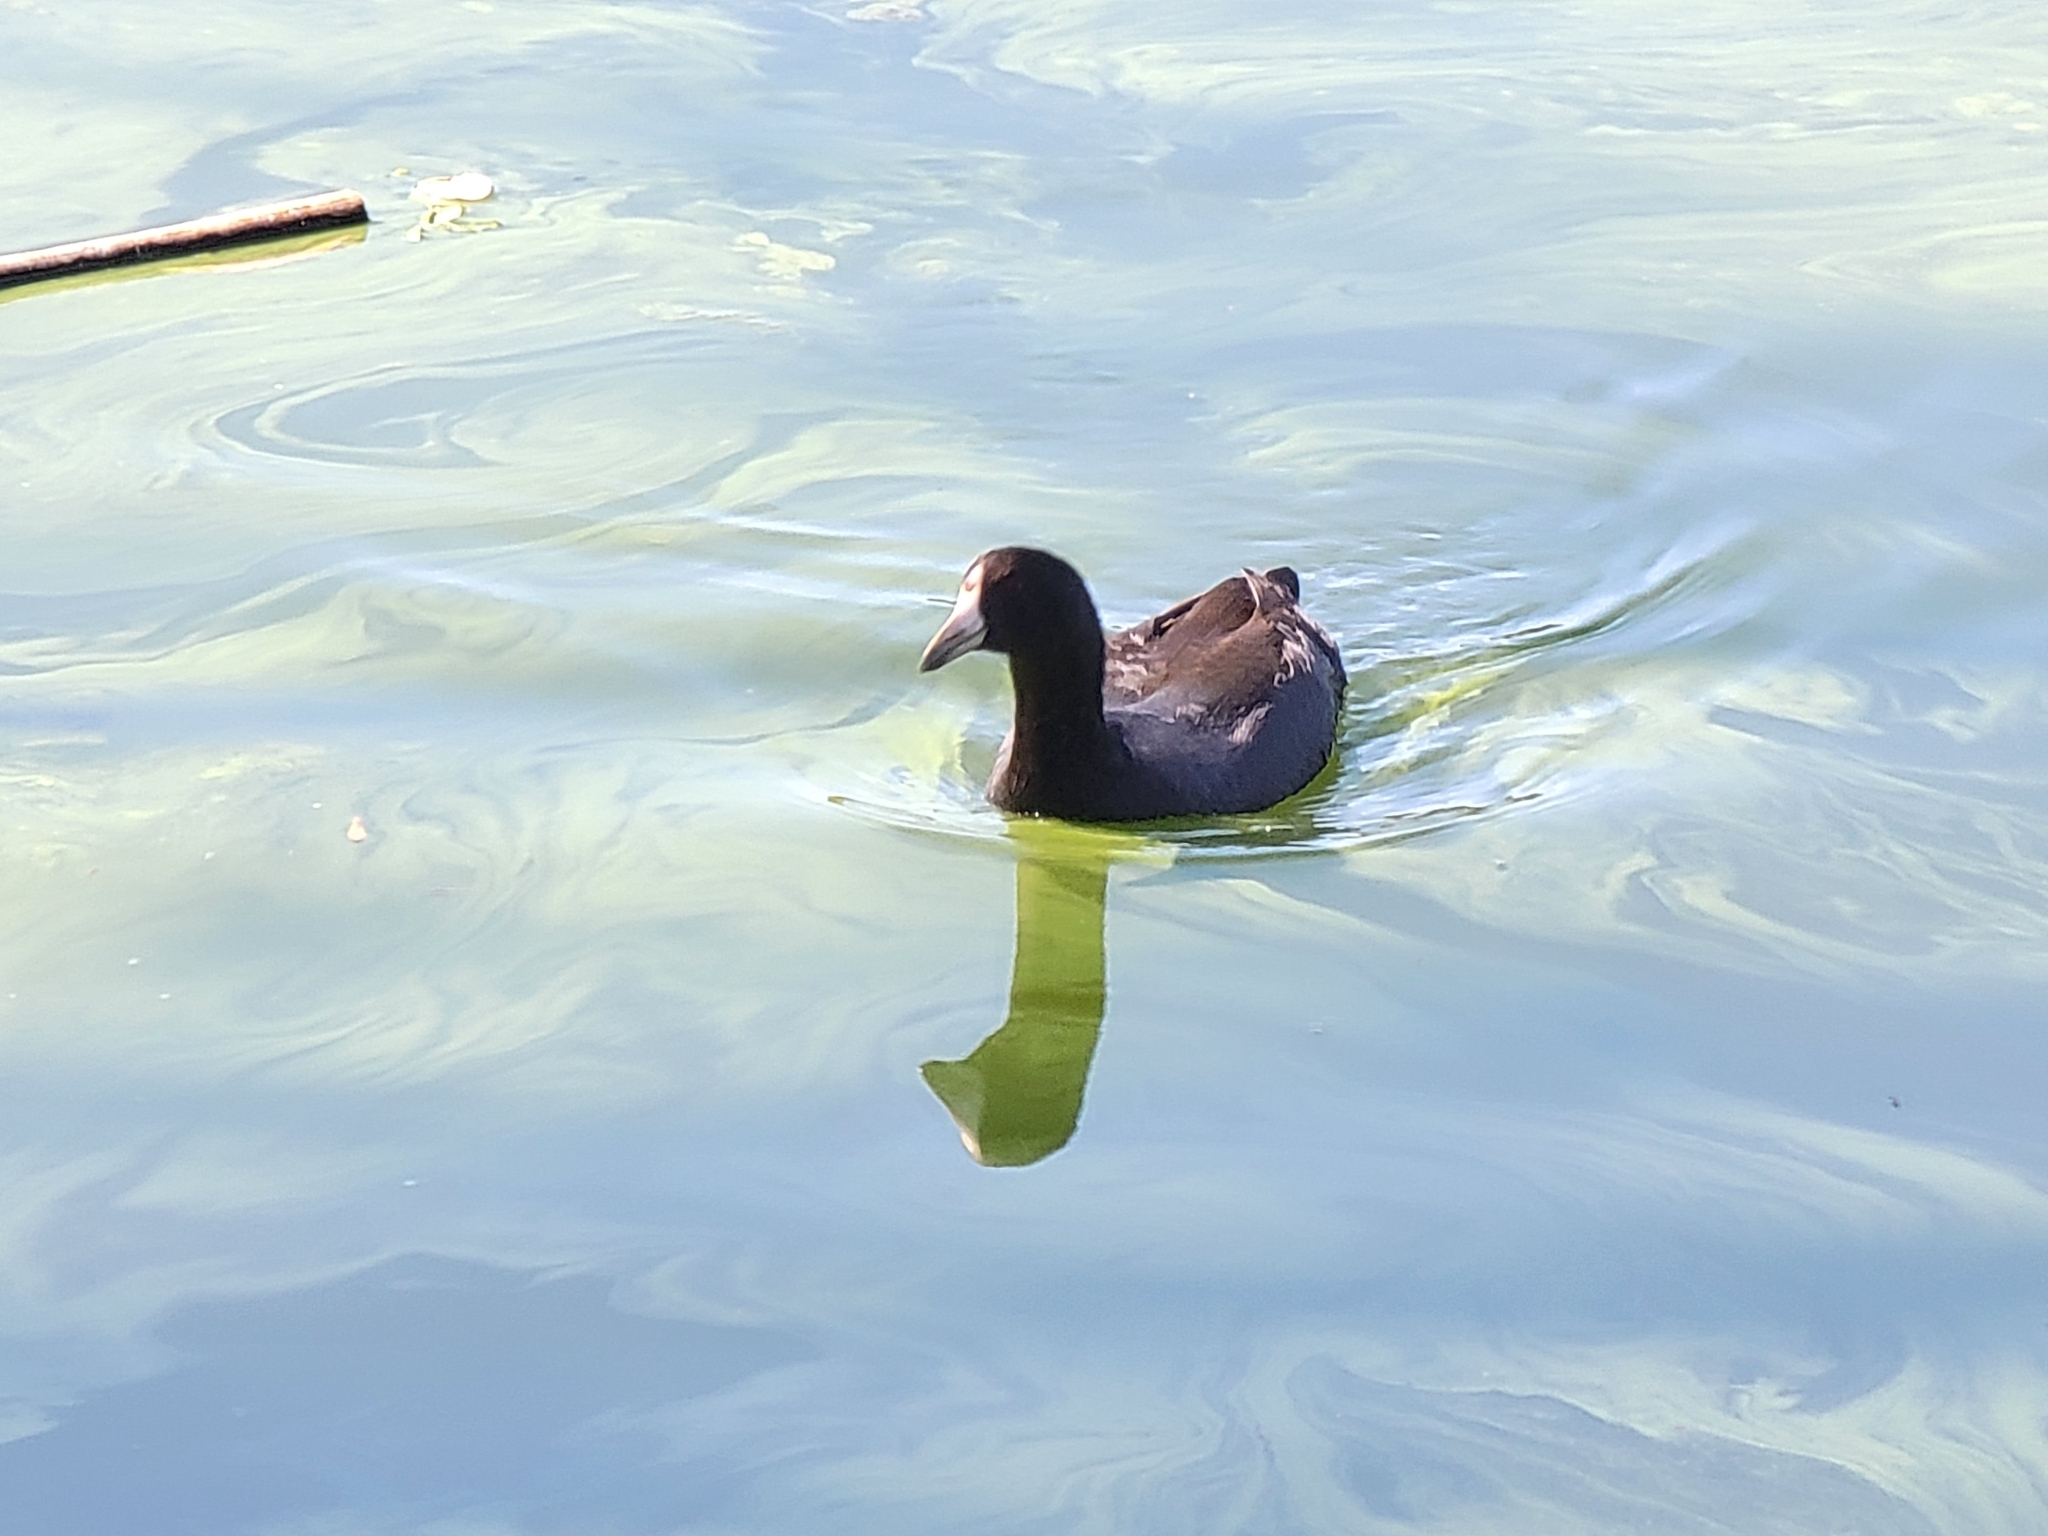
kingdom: Animalia
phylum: Chordata
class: Aves
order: Gruiformes
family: Rallidae
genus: Fulica
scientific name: Fulica americana
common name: American coot
